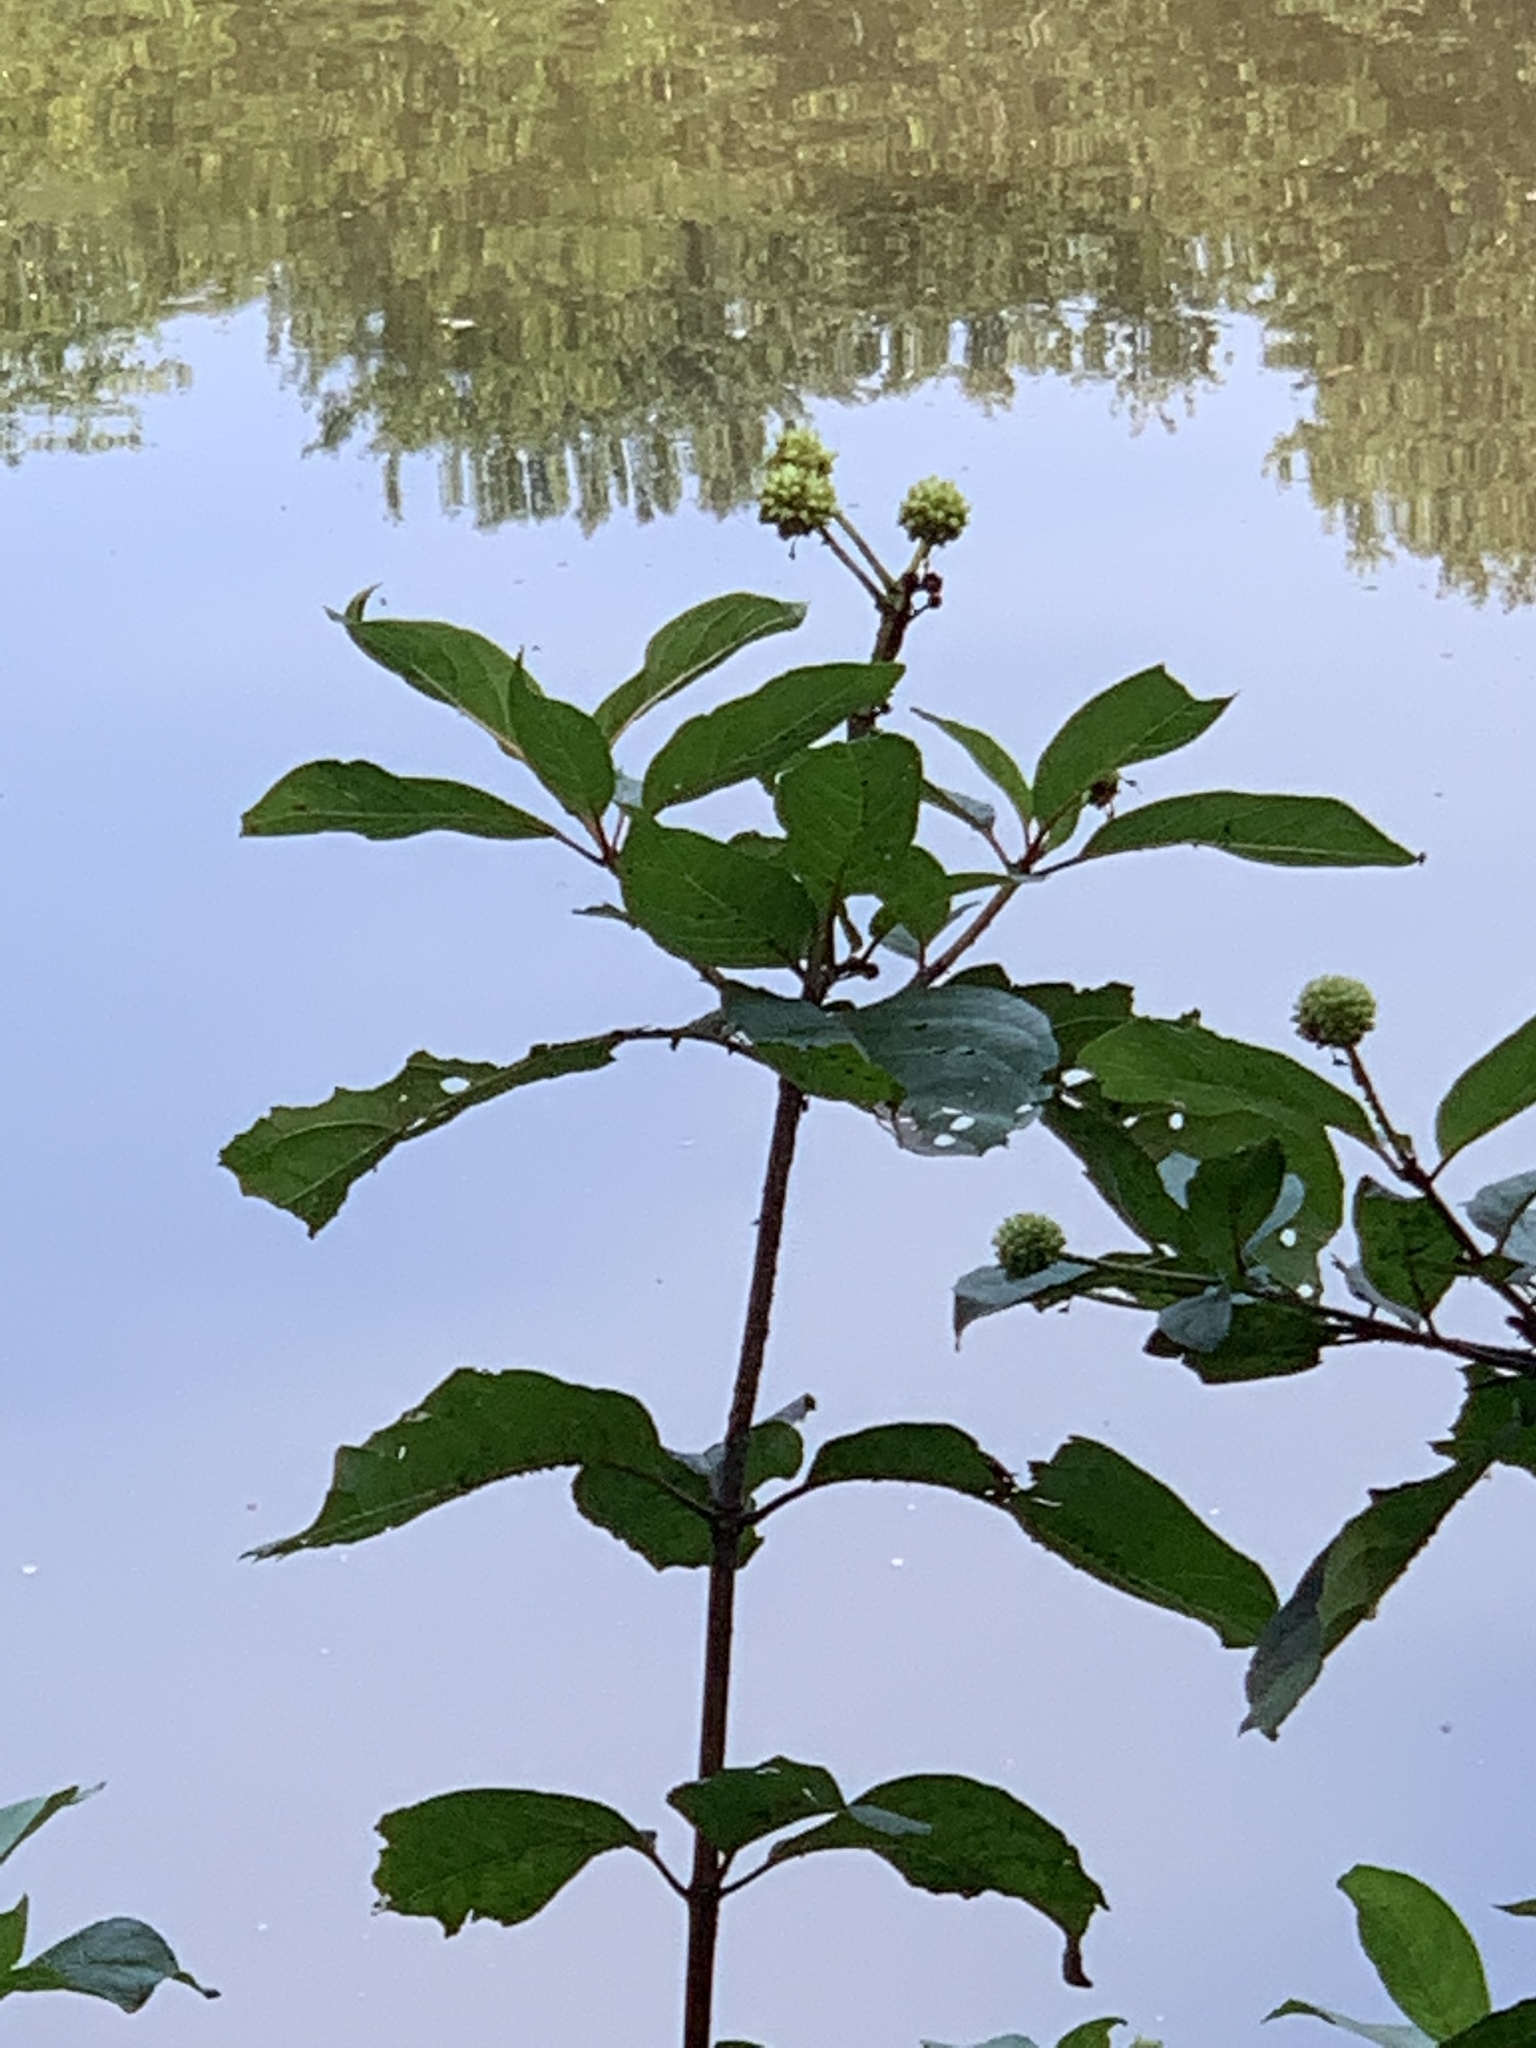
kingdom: Plantae
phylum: Tracheophyta
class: Magnoliopsida
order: Gentianales
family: Rubiaceae
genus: Cephalanthus
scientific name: Cephalanthus occidentalis
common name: Button-willow
